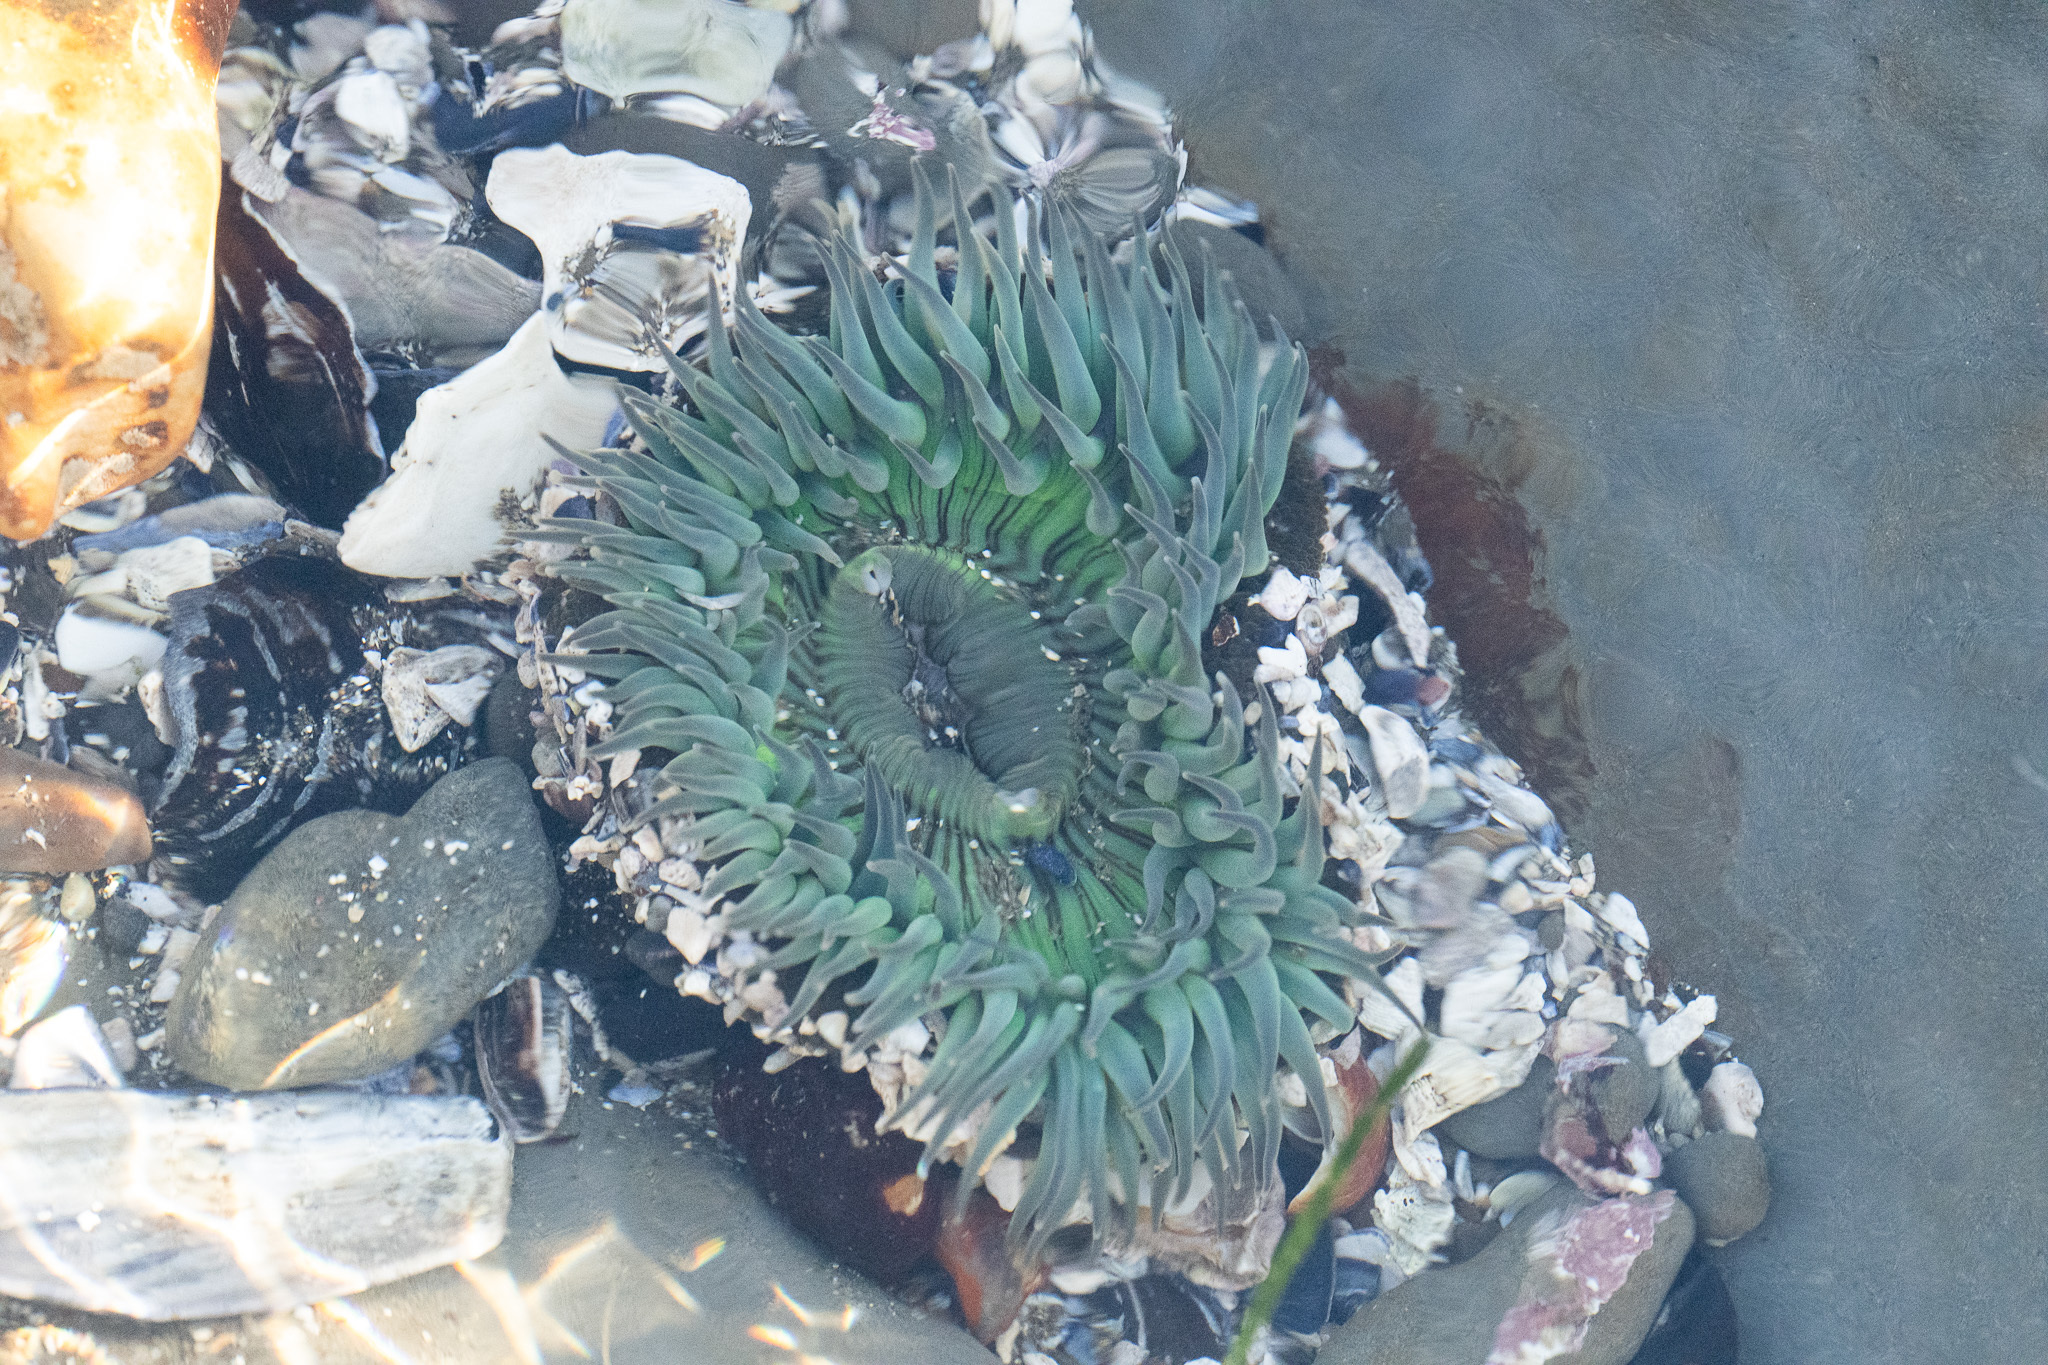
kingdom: Animalia
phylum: Cnidaria
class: Anthozoa
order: Actiniaria
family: Actiniidae
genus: Anthopleura
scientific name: Anthopleura sola
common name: Sun anemone
